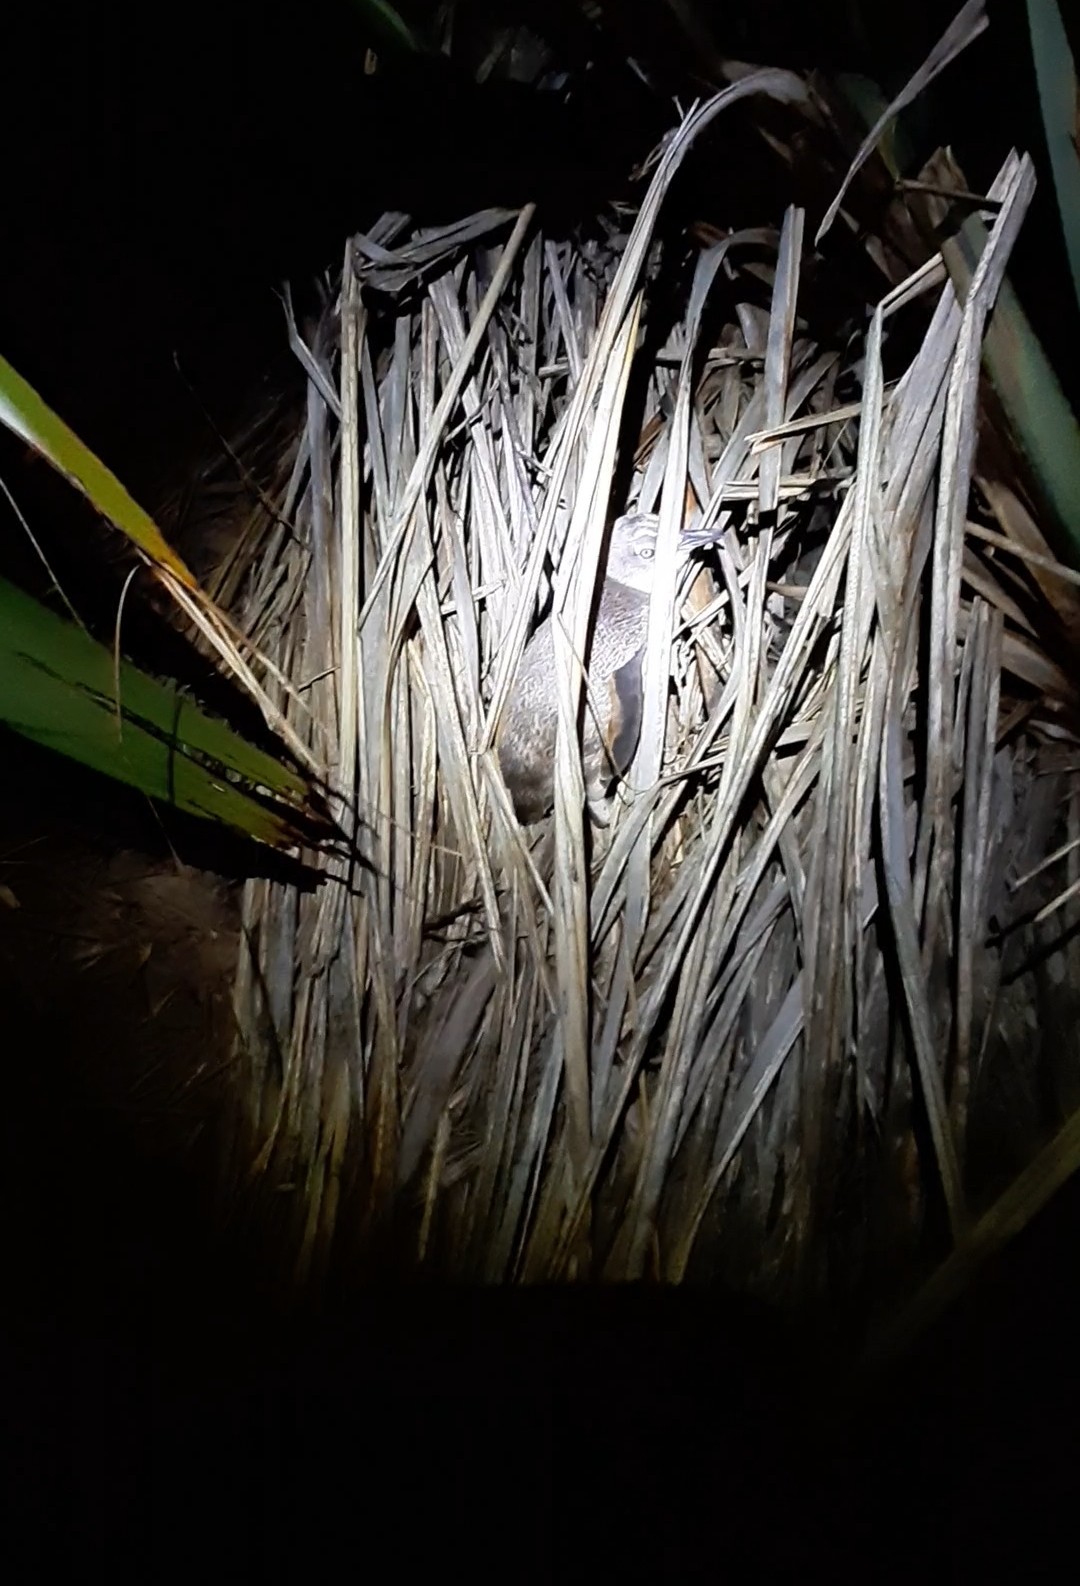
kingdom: Animalia
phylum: Chordata
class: Aves
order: Sphenisciformes
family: Spheniscidae
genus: Eudyptula
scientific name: Eudyptula minor
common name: Little penguin
